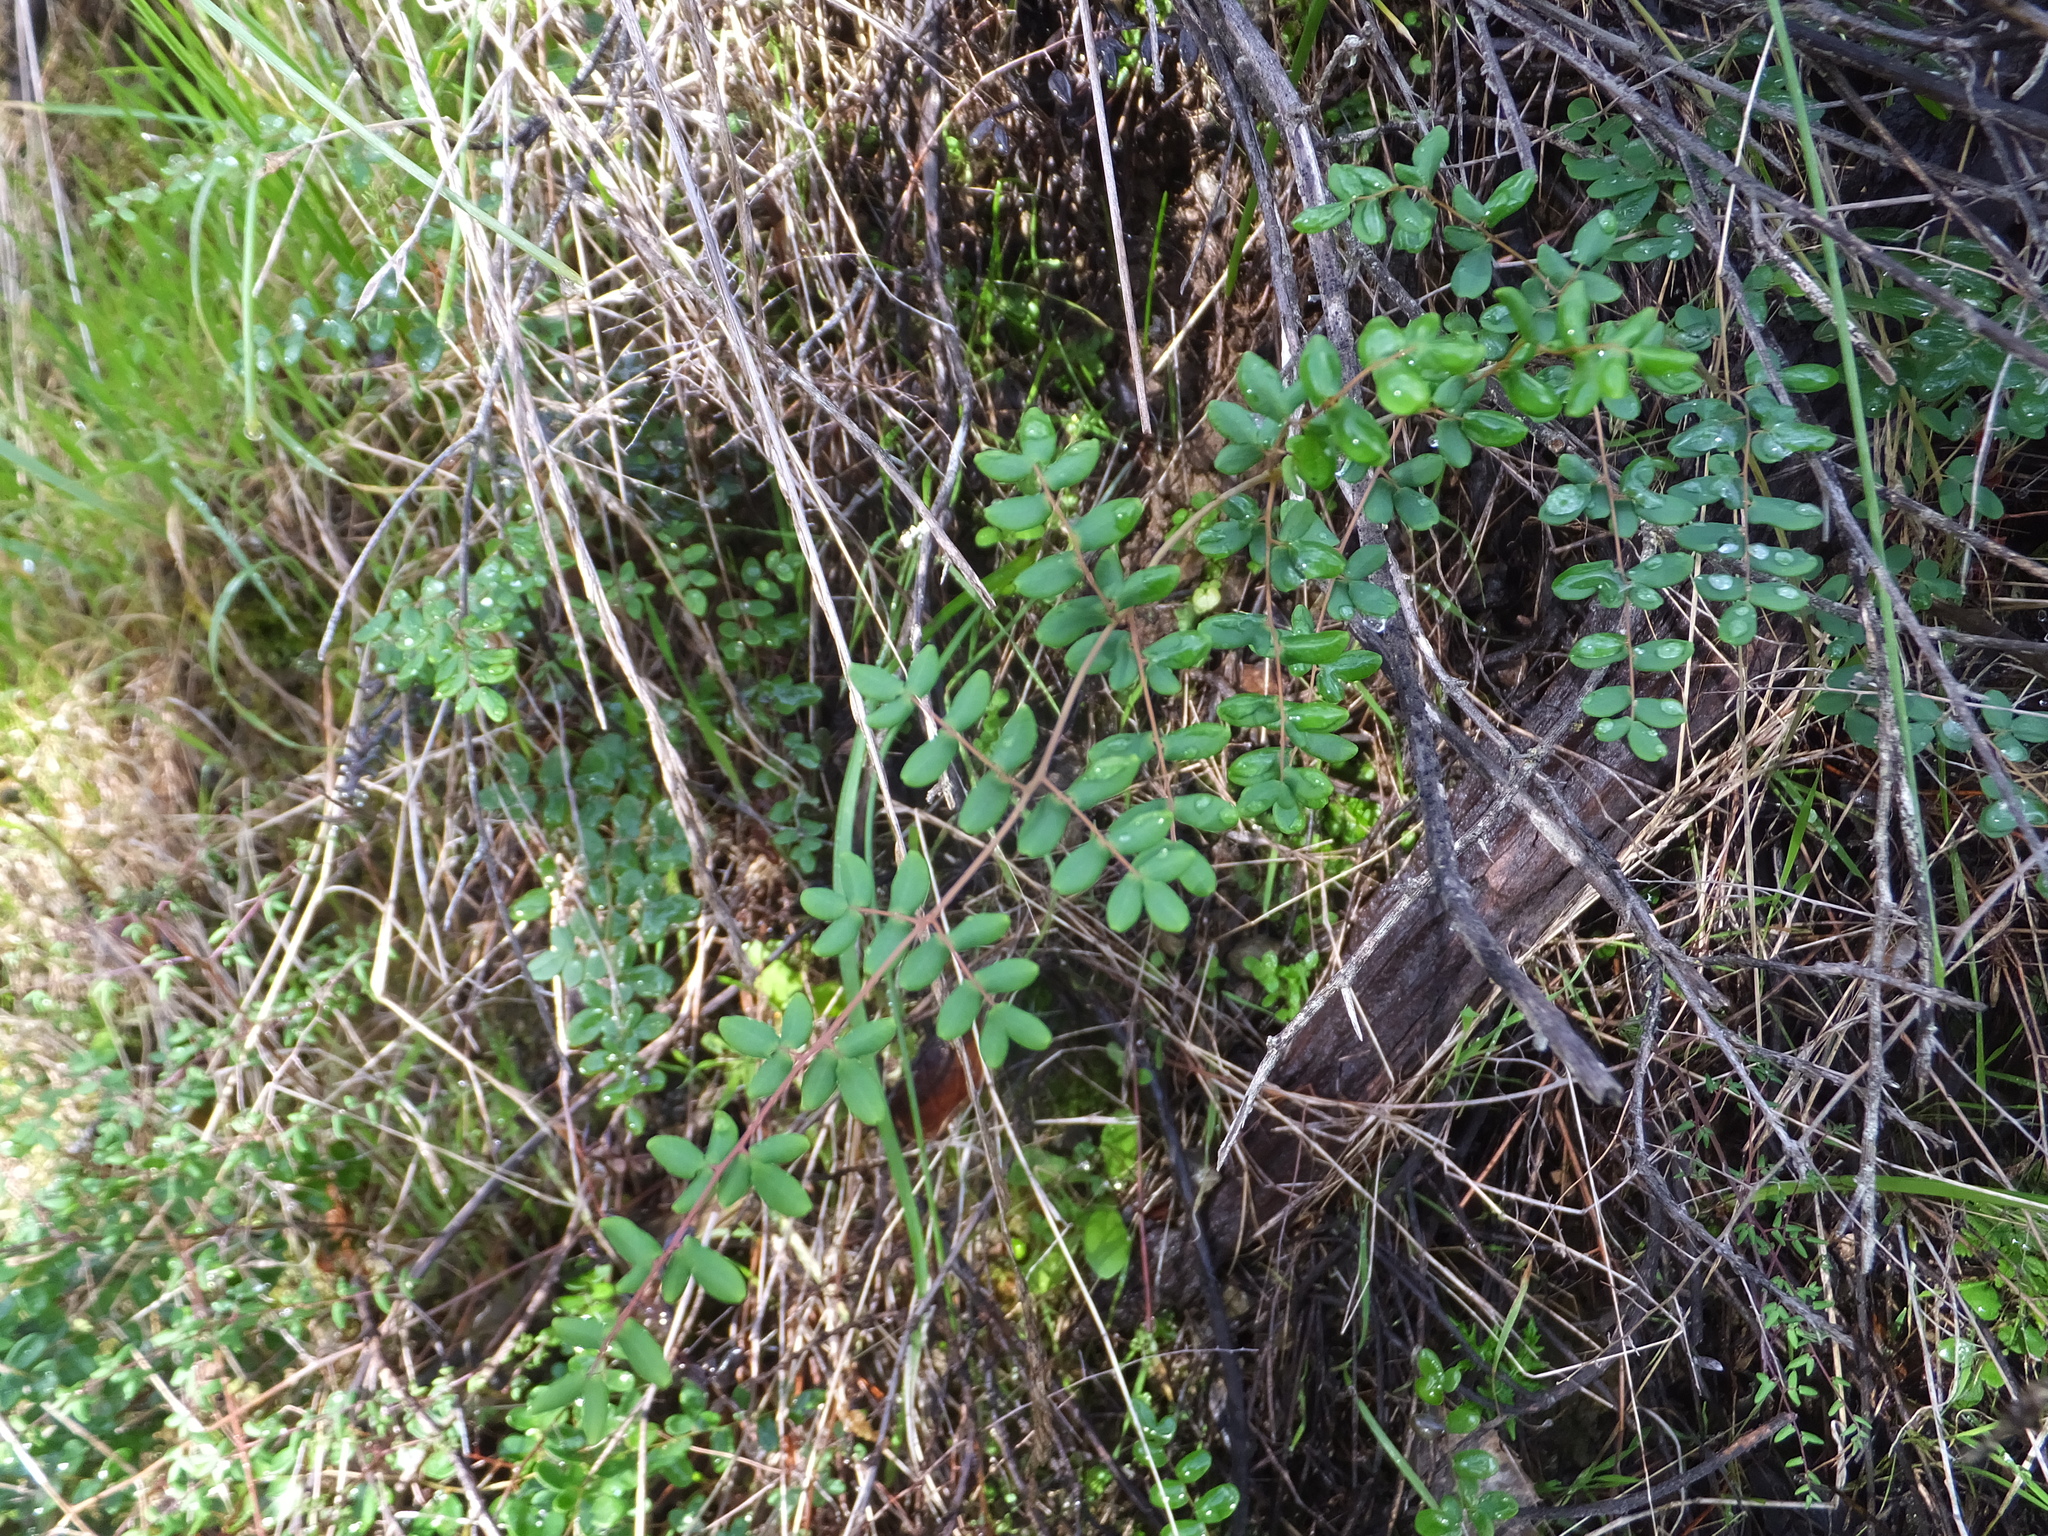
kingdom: Plantae
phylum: Tracheophyta
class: Polypodiopsida
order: Polypodiales
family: Pteridaceae
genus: Pellaea
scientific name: Pellaea andromedifolia
